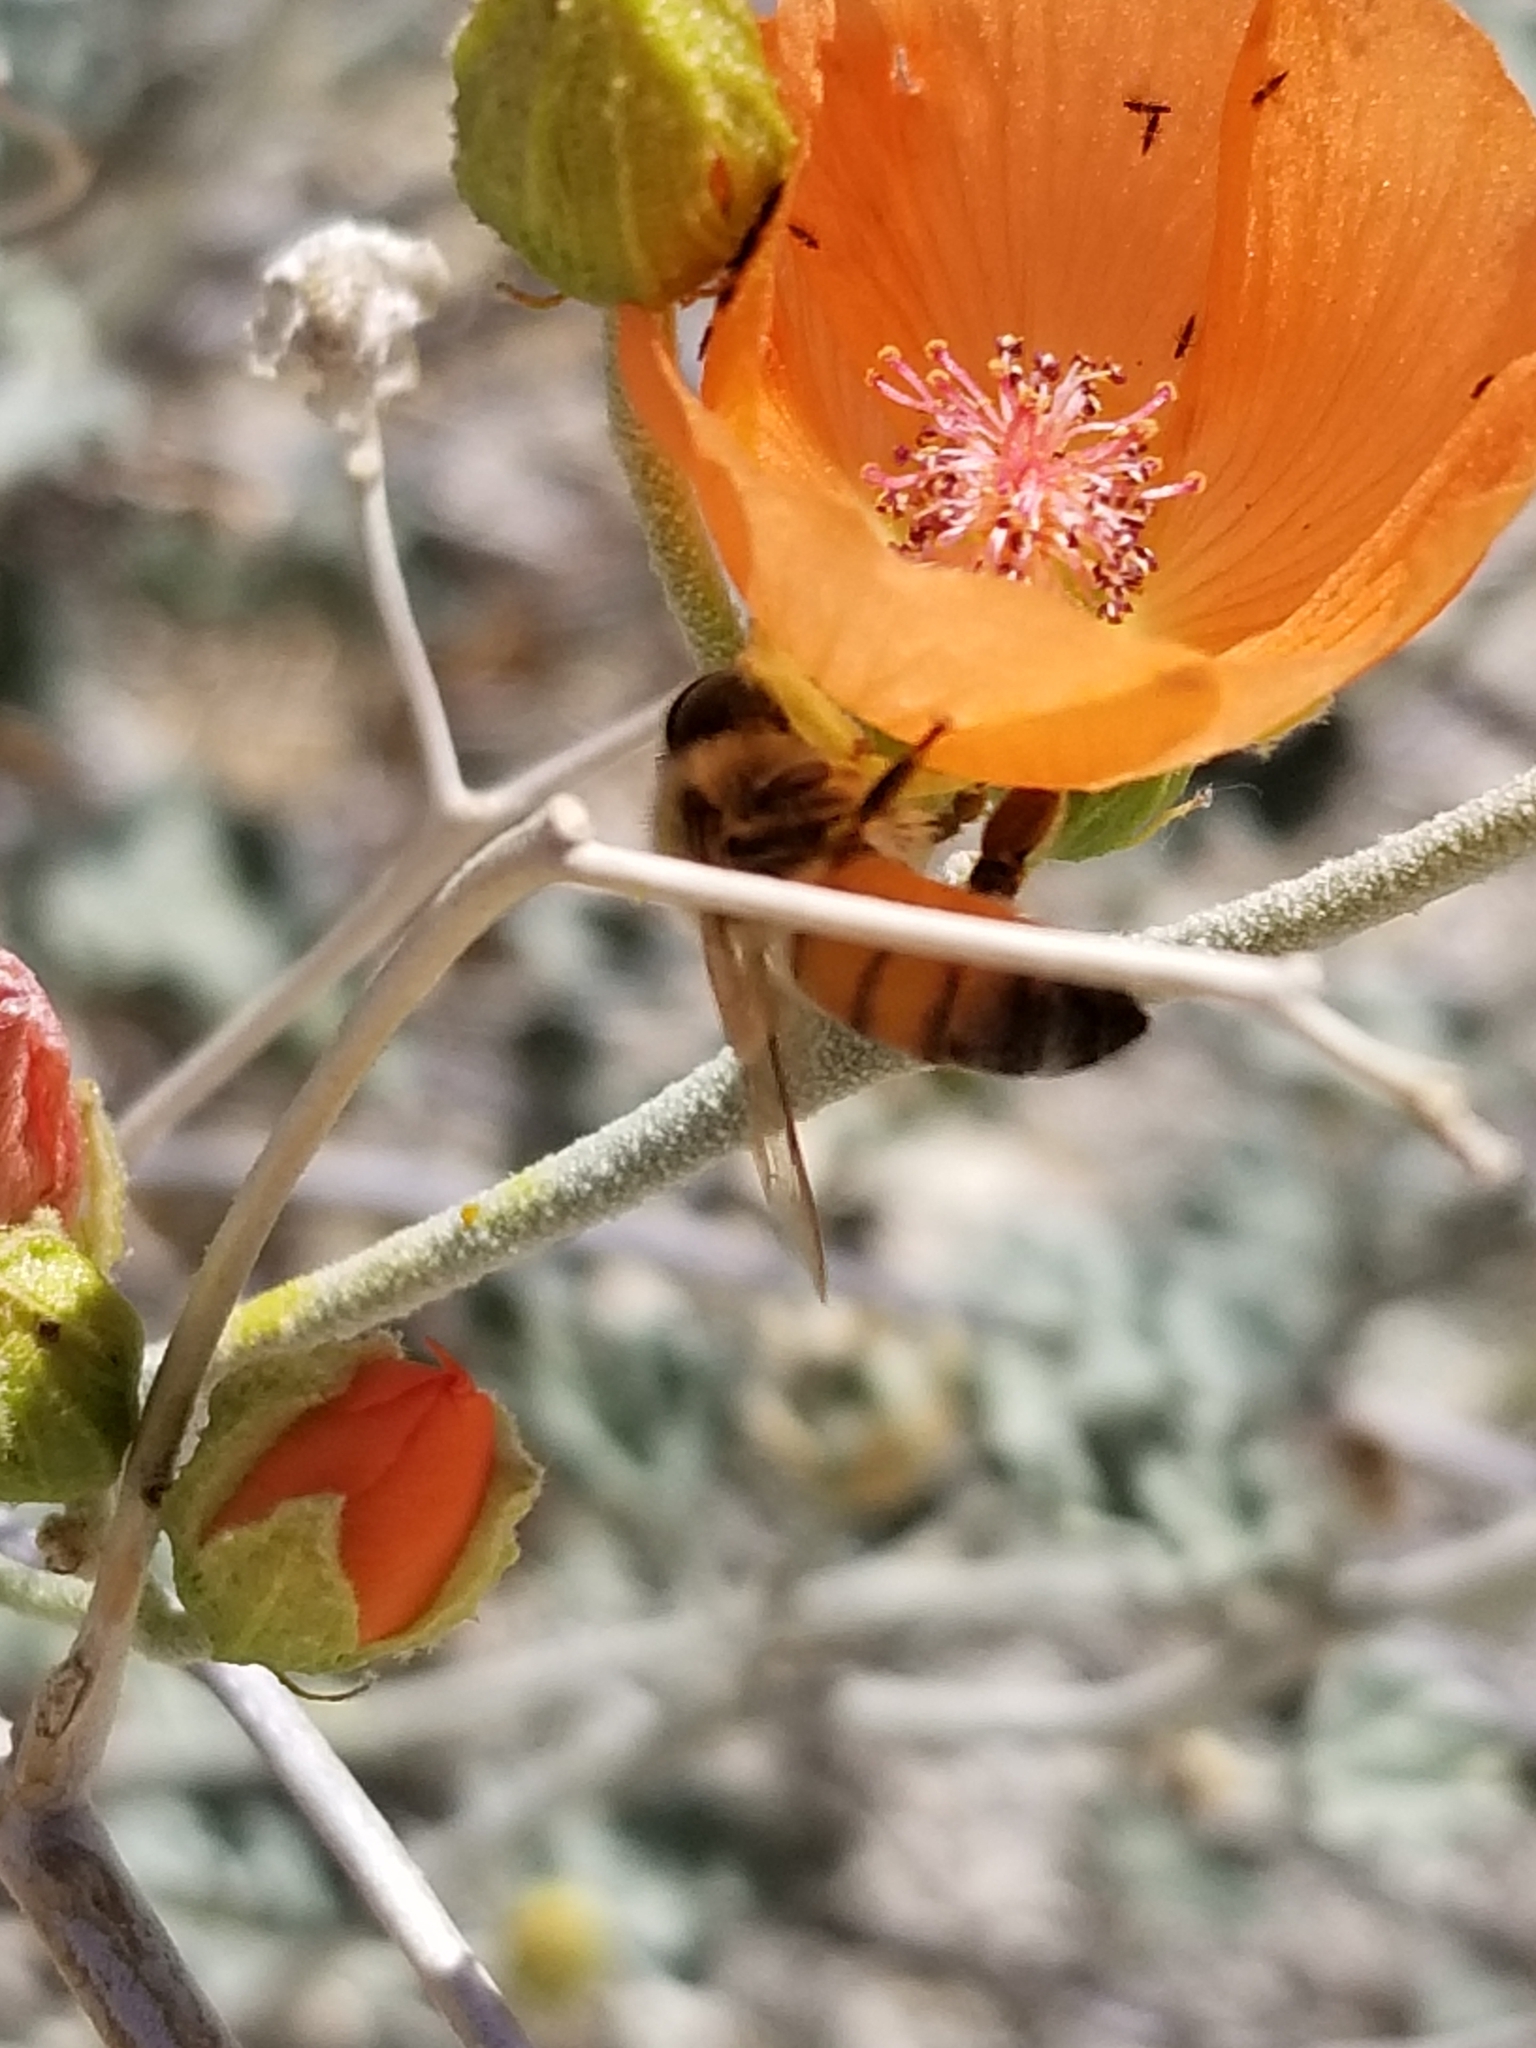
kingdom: Animalia
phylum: Arthropoda
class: Insecta
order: Hymenoptera
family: Apidae
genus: Apis
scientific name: Apis mellifera
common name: Honey bee
